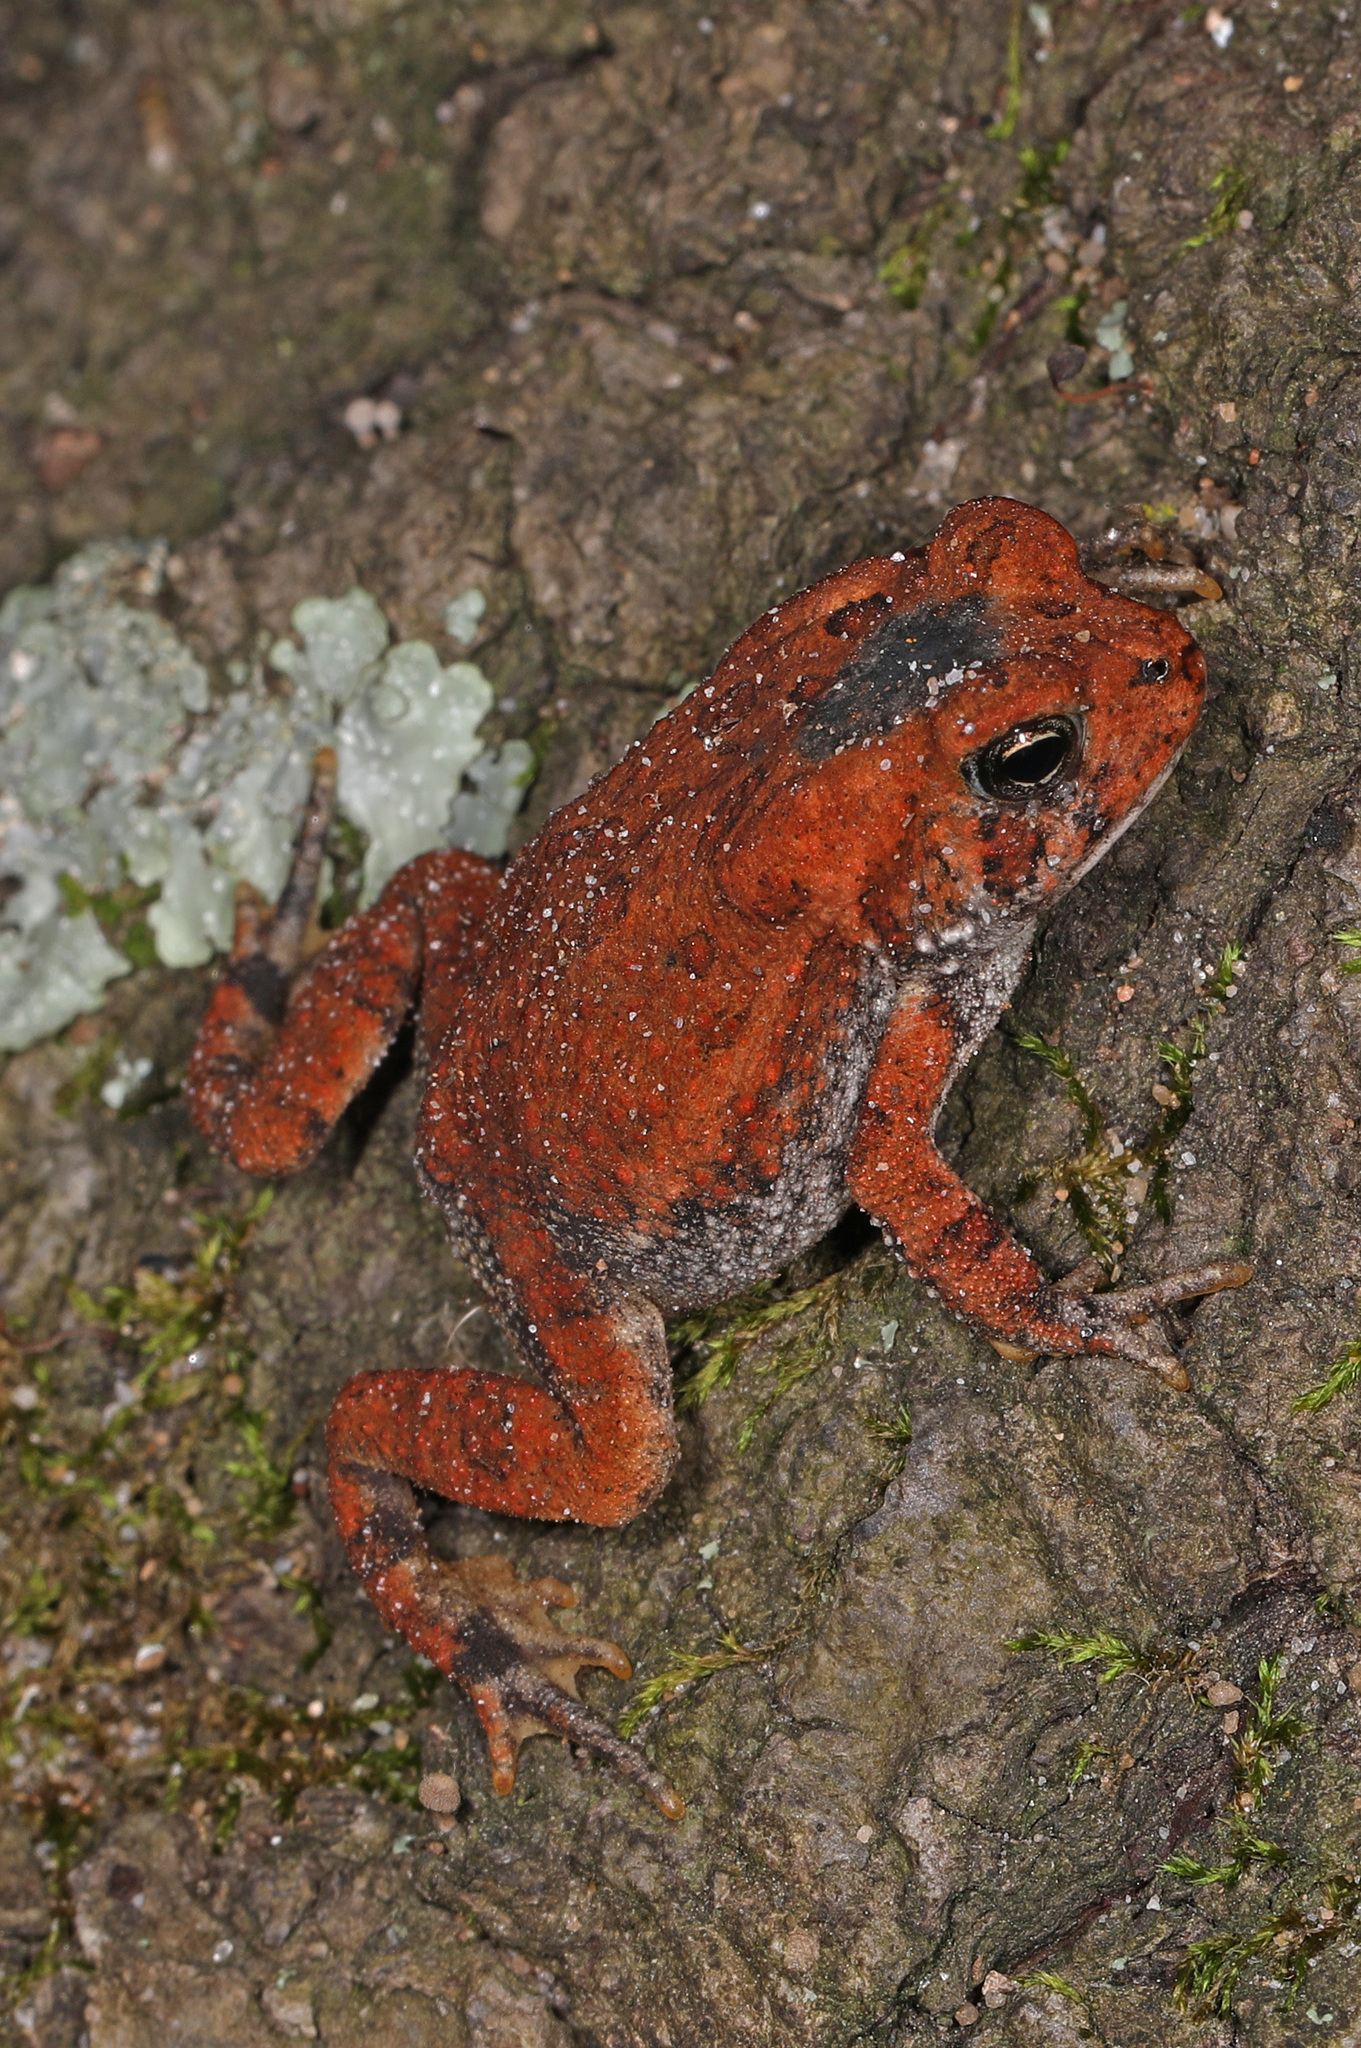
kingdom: Animalia
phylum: Chordata
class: Amphibia
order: Anura
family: Bufonidae
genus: Anaxyrus
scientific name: Anaxyrus americanus
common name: American toad
